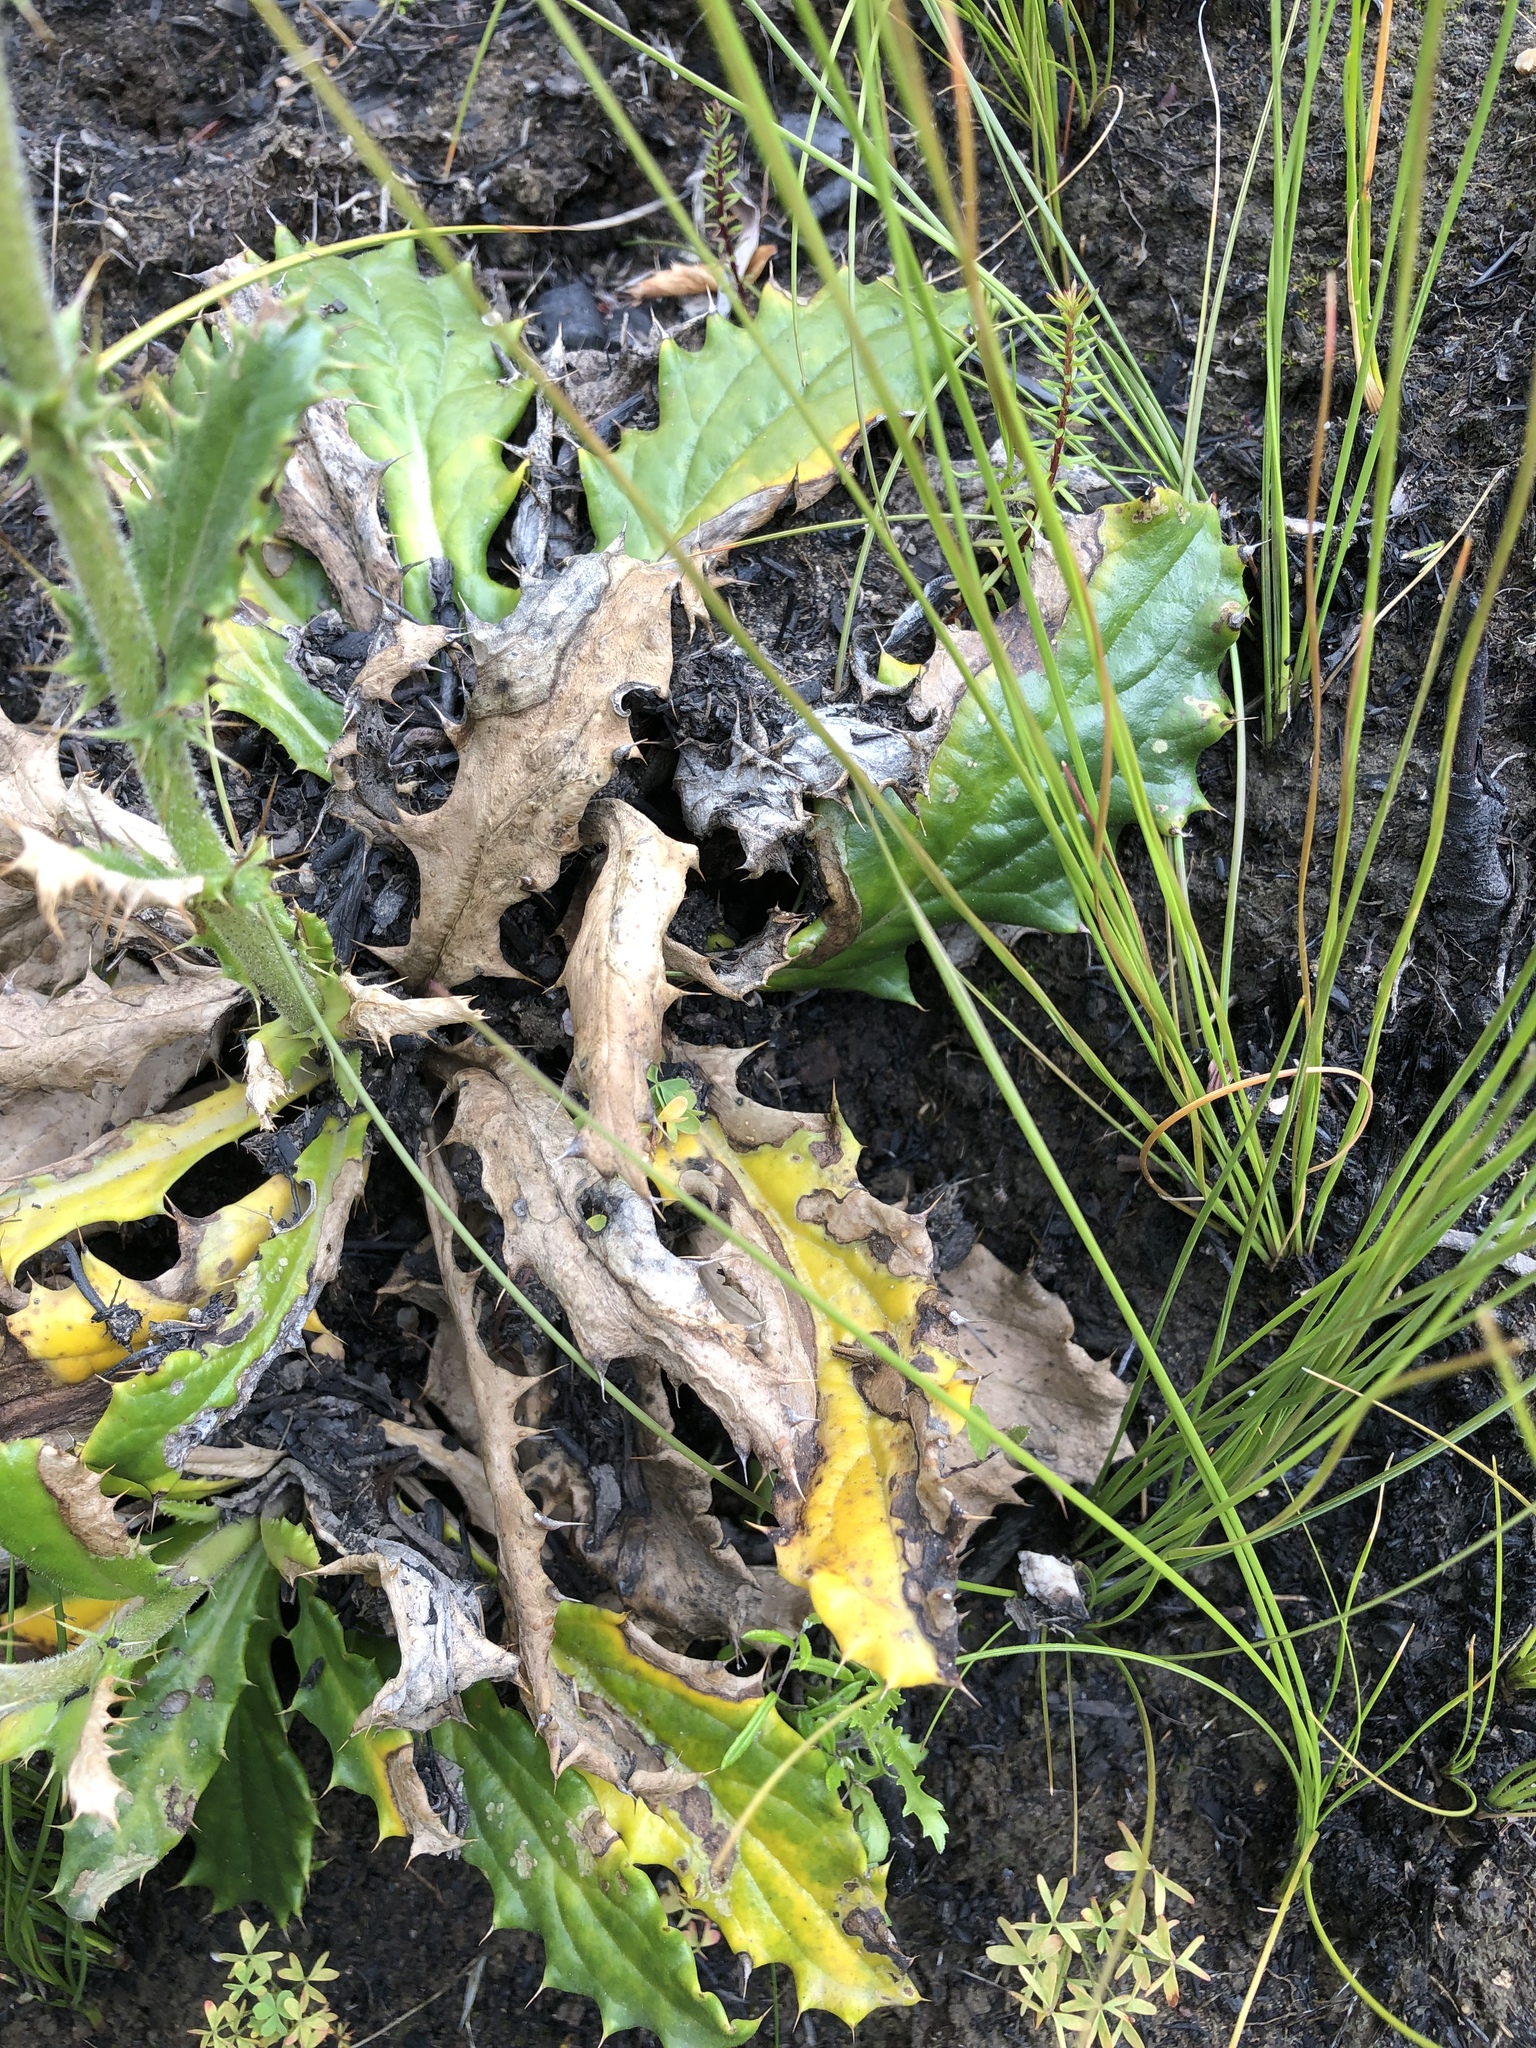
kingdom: Plantae
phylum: Tracheophyta
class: Magnoliopsida
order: Asterales
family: Asteraceae
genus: Berkheya
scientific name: Berkheya carlinoides
